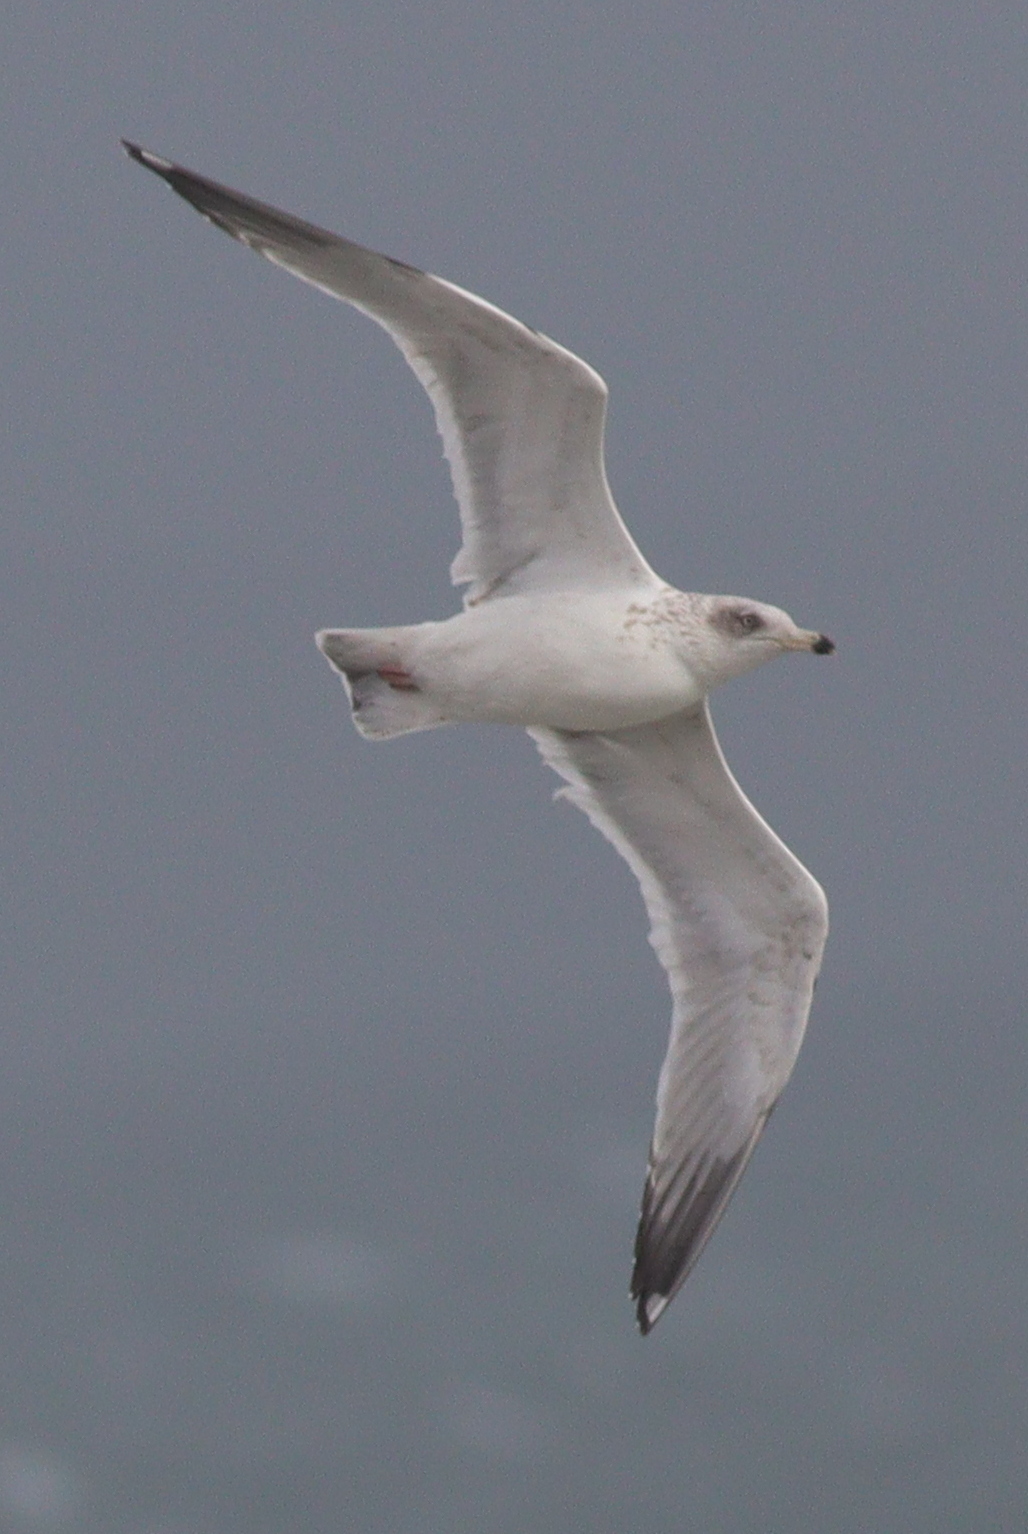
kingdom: Animalia
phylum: Chordata
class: Aves
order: Charadriiformes
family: Laridae
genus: Larus
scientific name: Larus argentatus
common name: Herring gull
